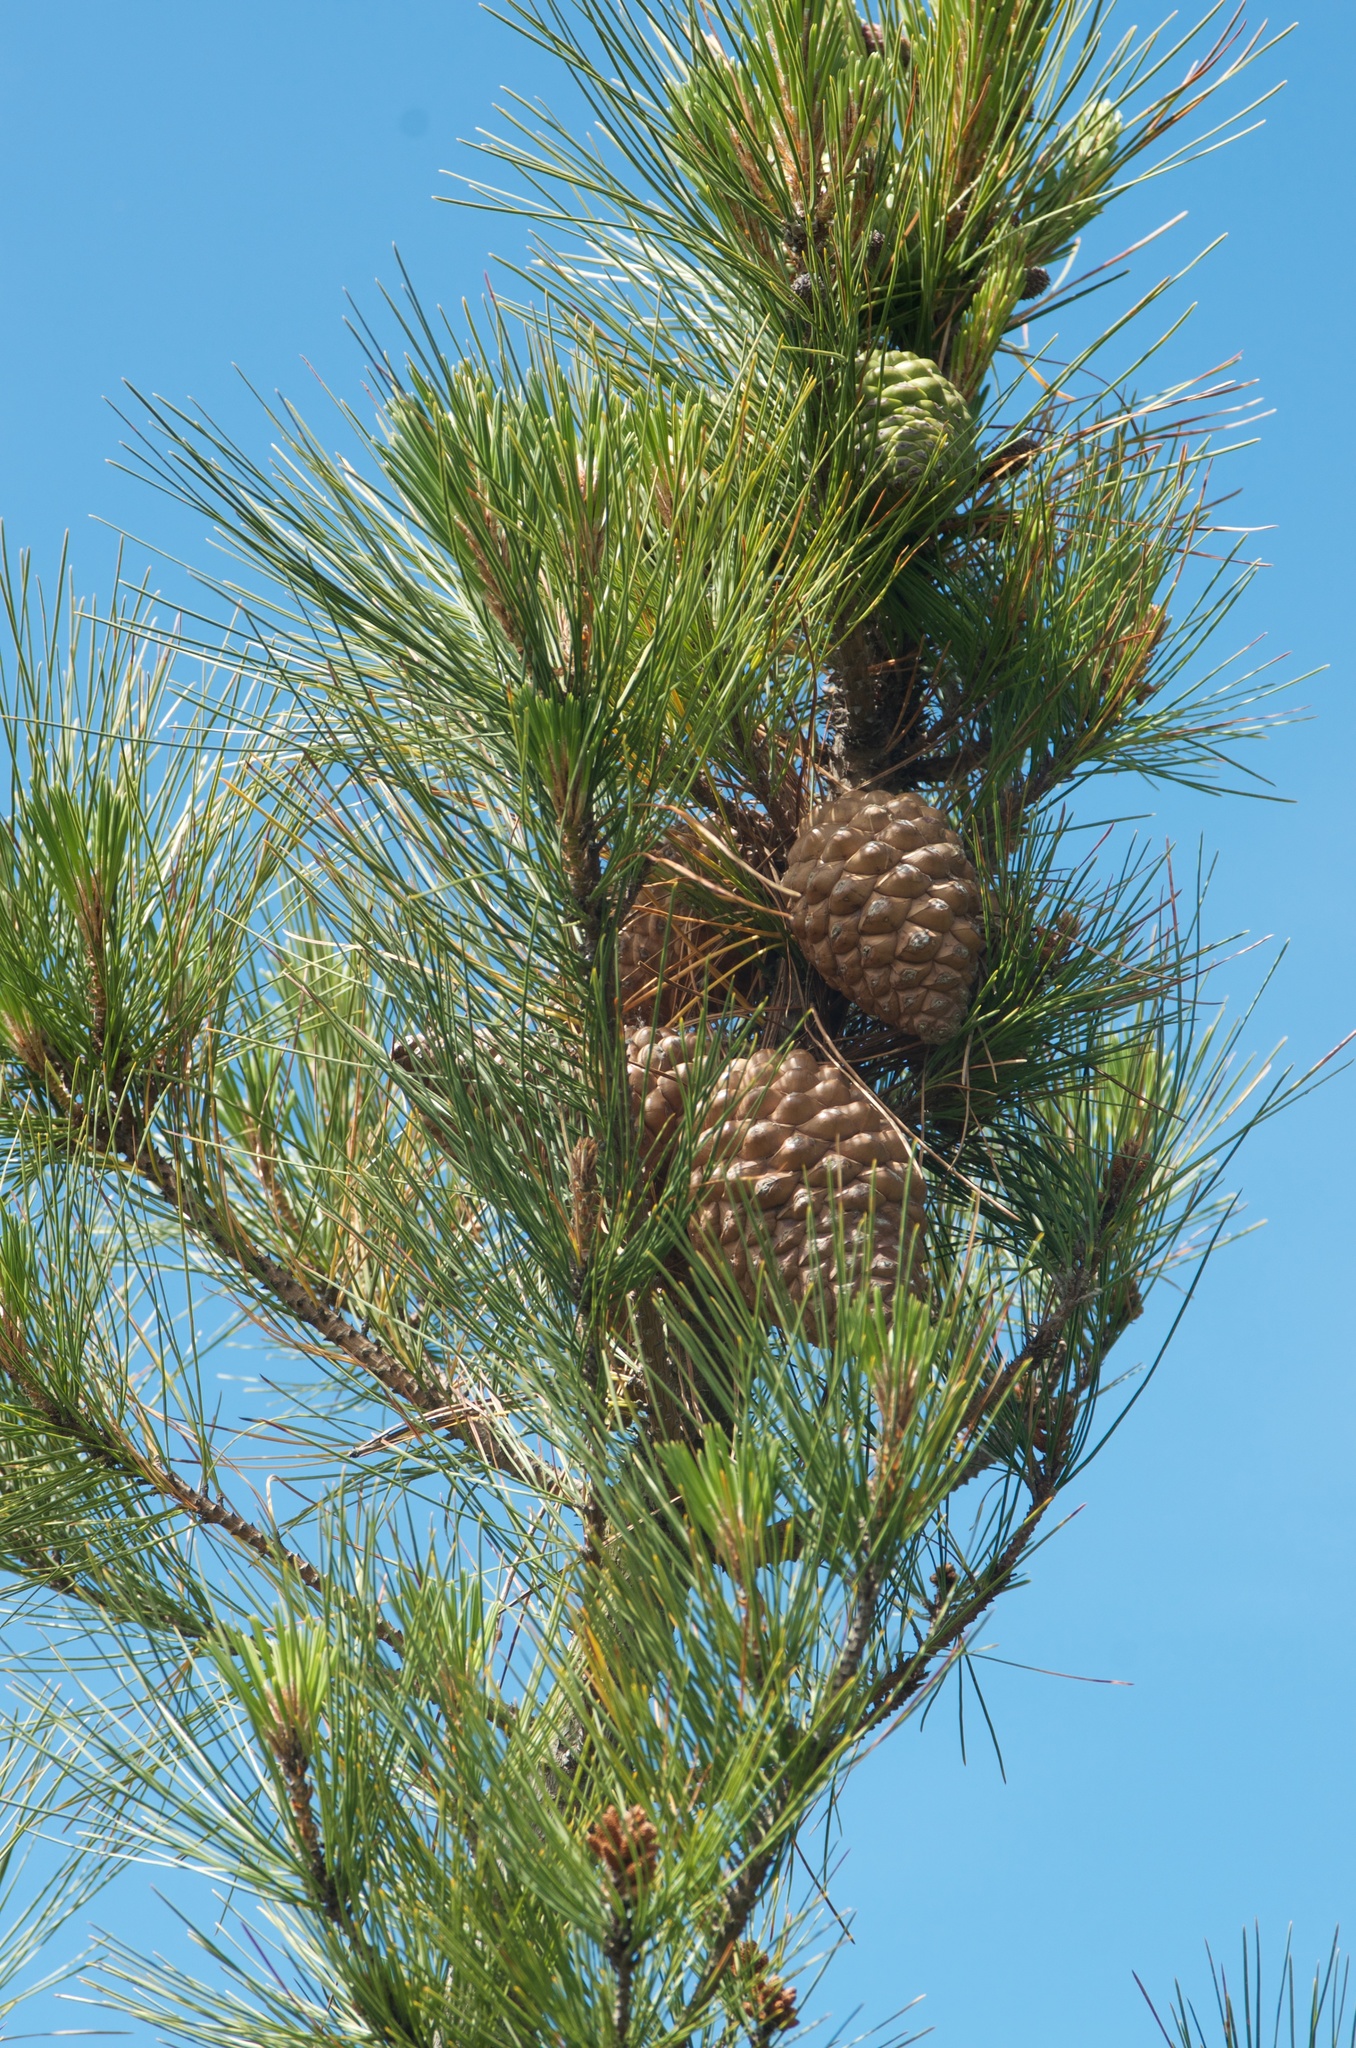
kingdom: Plantae
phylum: Tracheophyta
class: Pinopsida
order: Pinales
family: Pinaceae
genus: Pinus
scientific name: Pinus radiata
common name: Monterey pine
